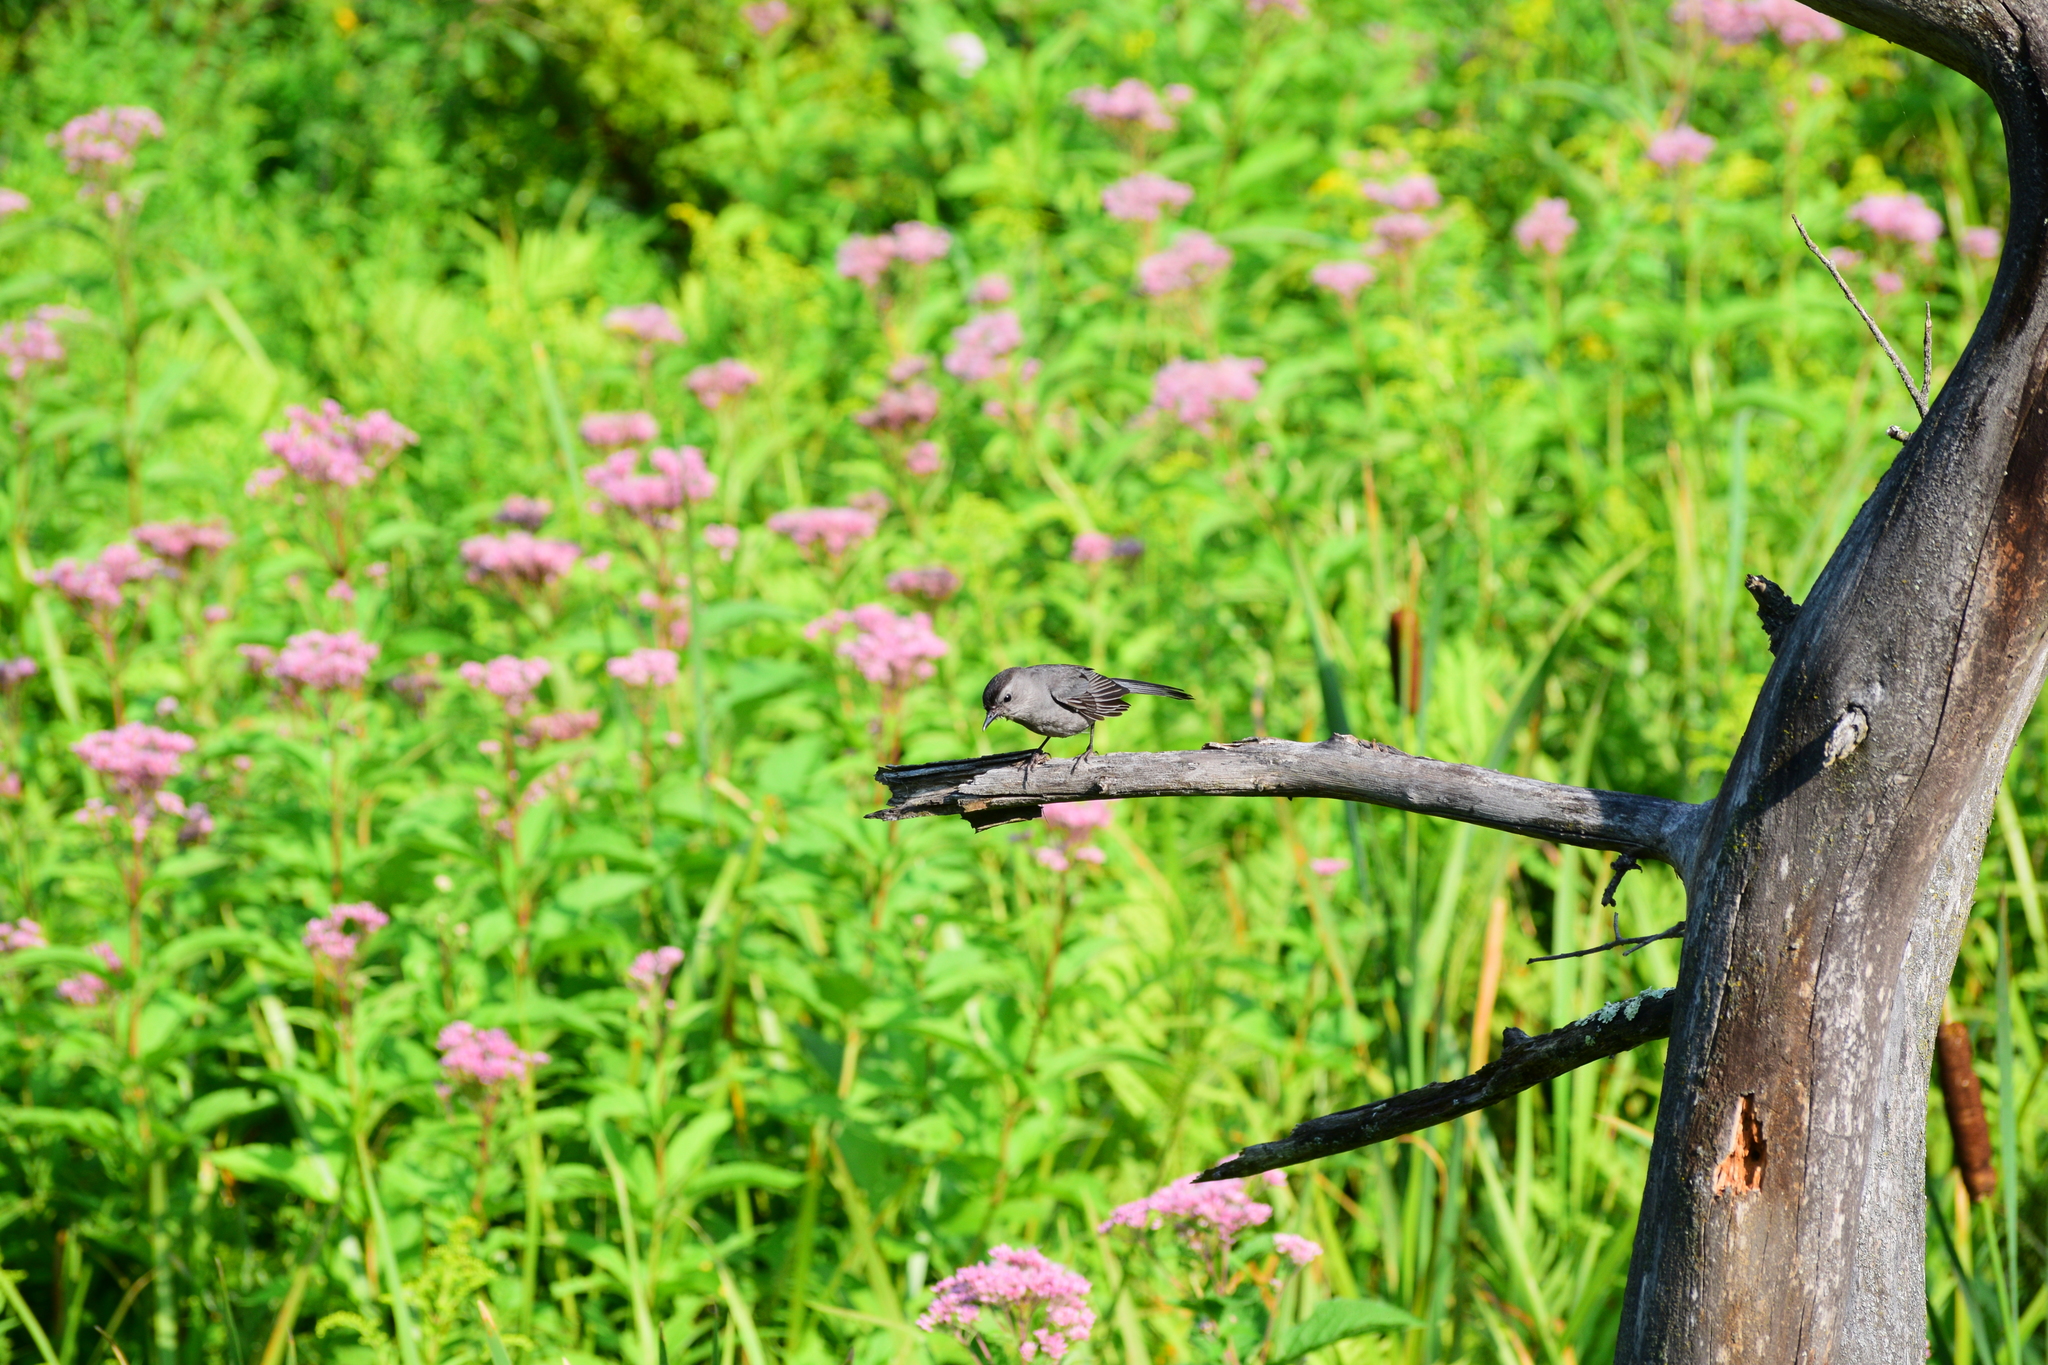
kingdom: Animalia
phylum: Chordata
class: Aves
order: Passeriformes
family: Mimidae
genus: Dumetella
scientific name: Dumetella carolinensis
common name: Gray catbird
